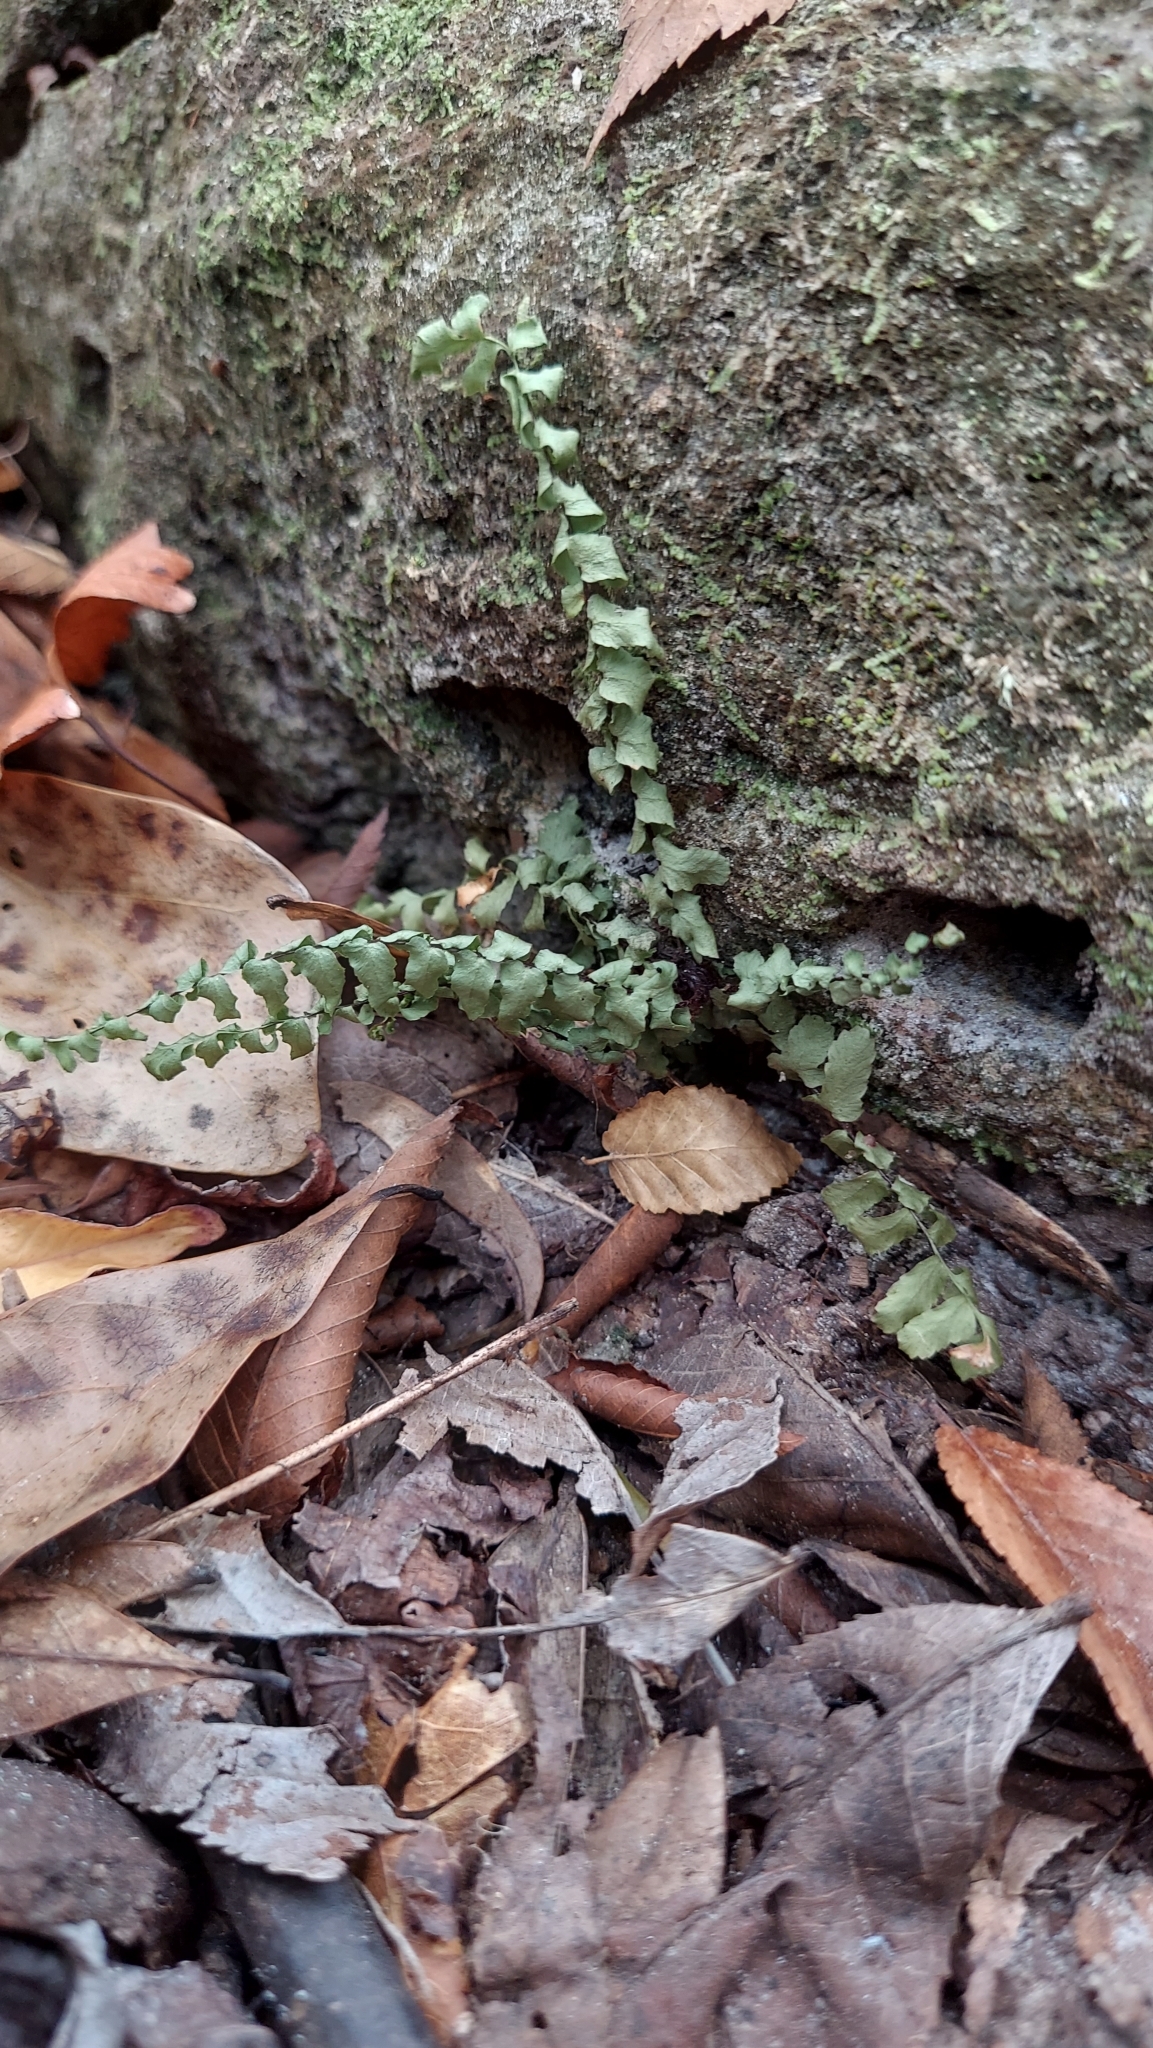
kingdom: Plantae
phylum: Tracheophyta
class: Polypodiopsida
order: Polypodiales
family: Aspleniaceae
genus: Asplenium
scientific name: Asplenium platyneuron
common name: Ebony spleenwort
